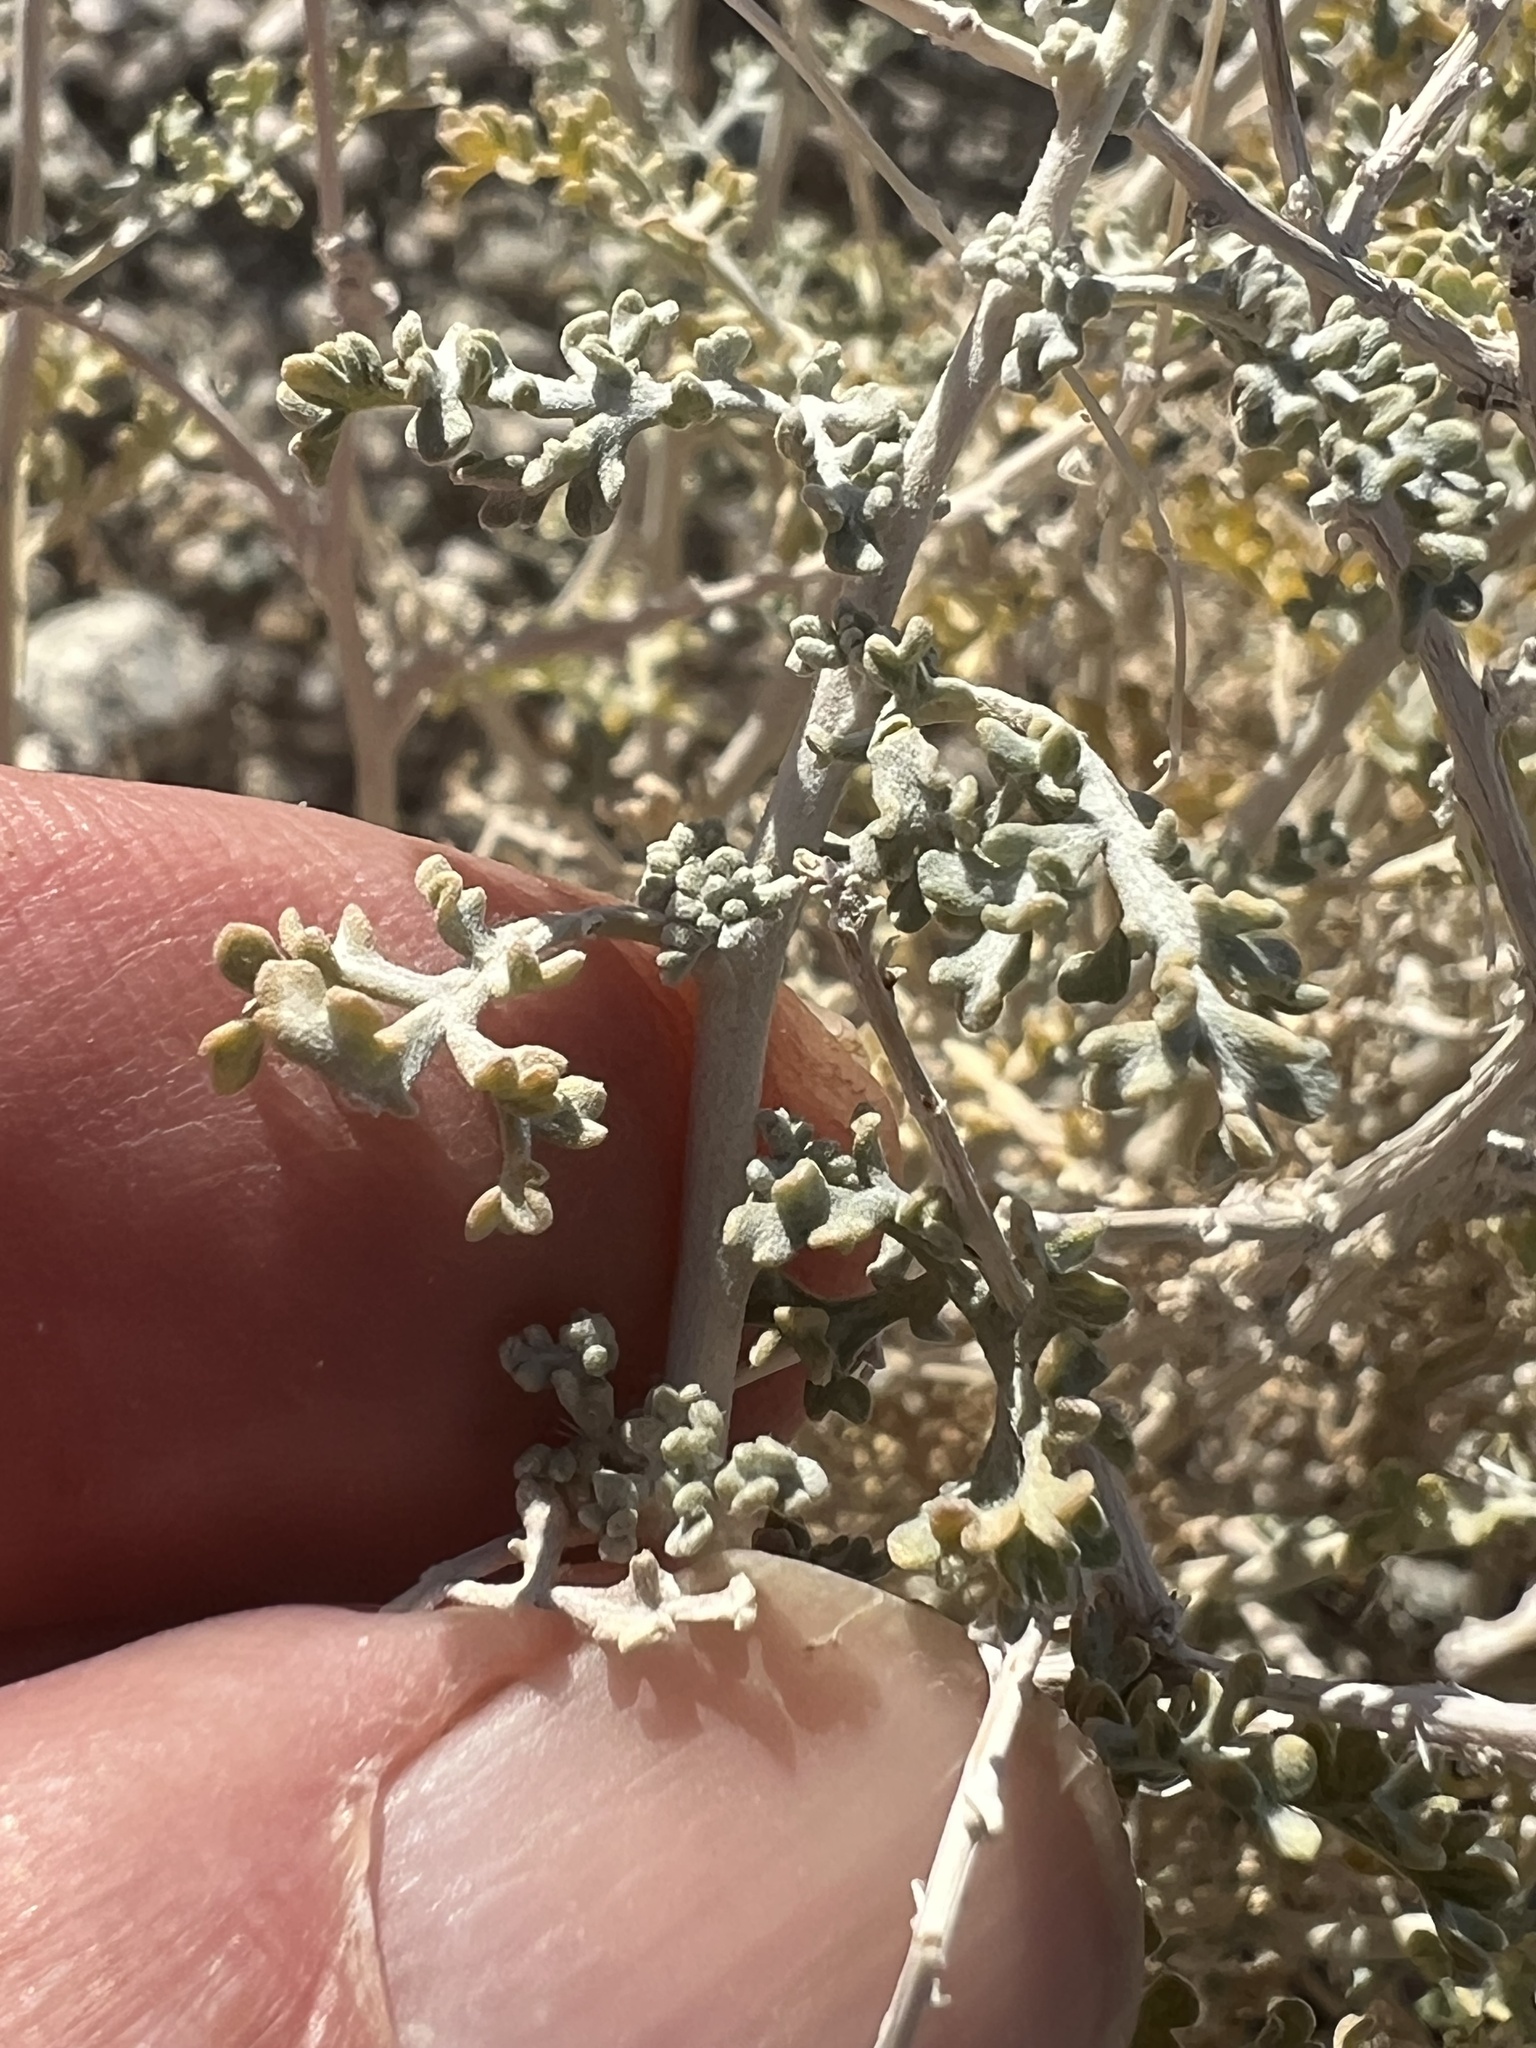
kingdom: Plantae
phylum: Tracheophyta
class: Magnoliopsida
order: Asterales
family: Asteraceae
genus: Ambrosia
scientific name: Ambrosia dumosa
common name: Bur-sage
